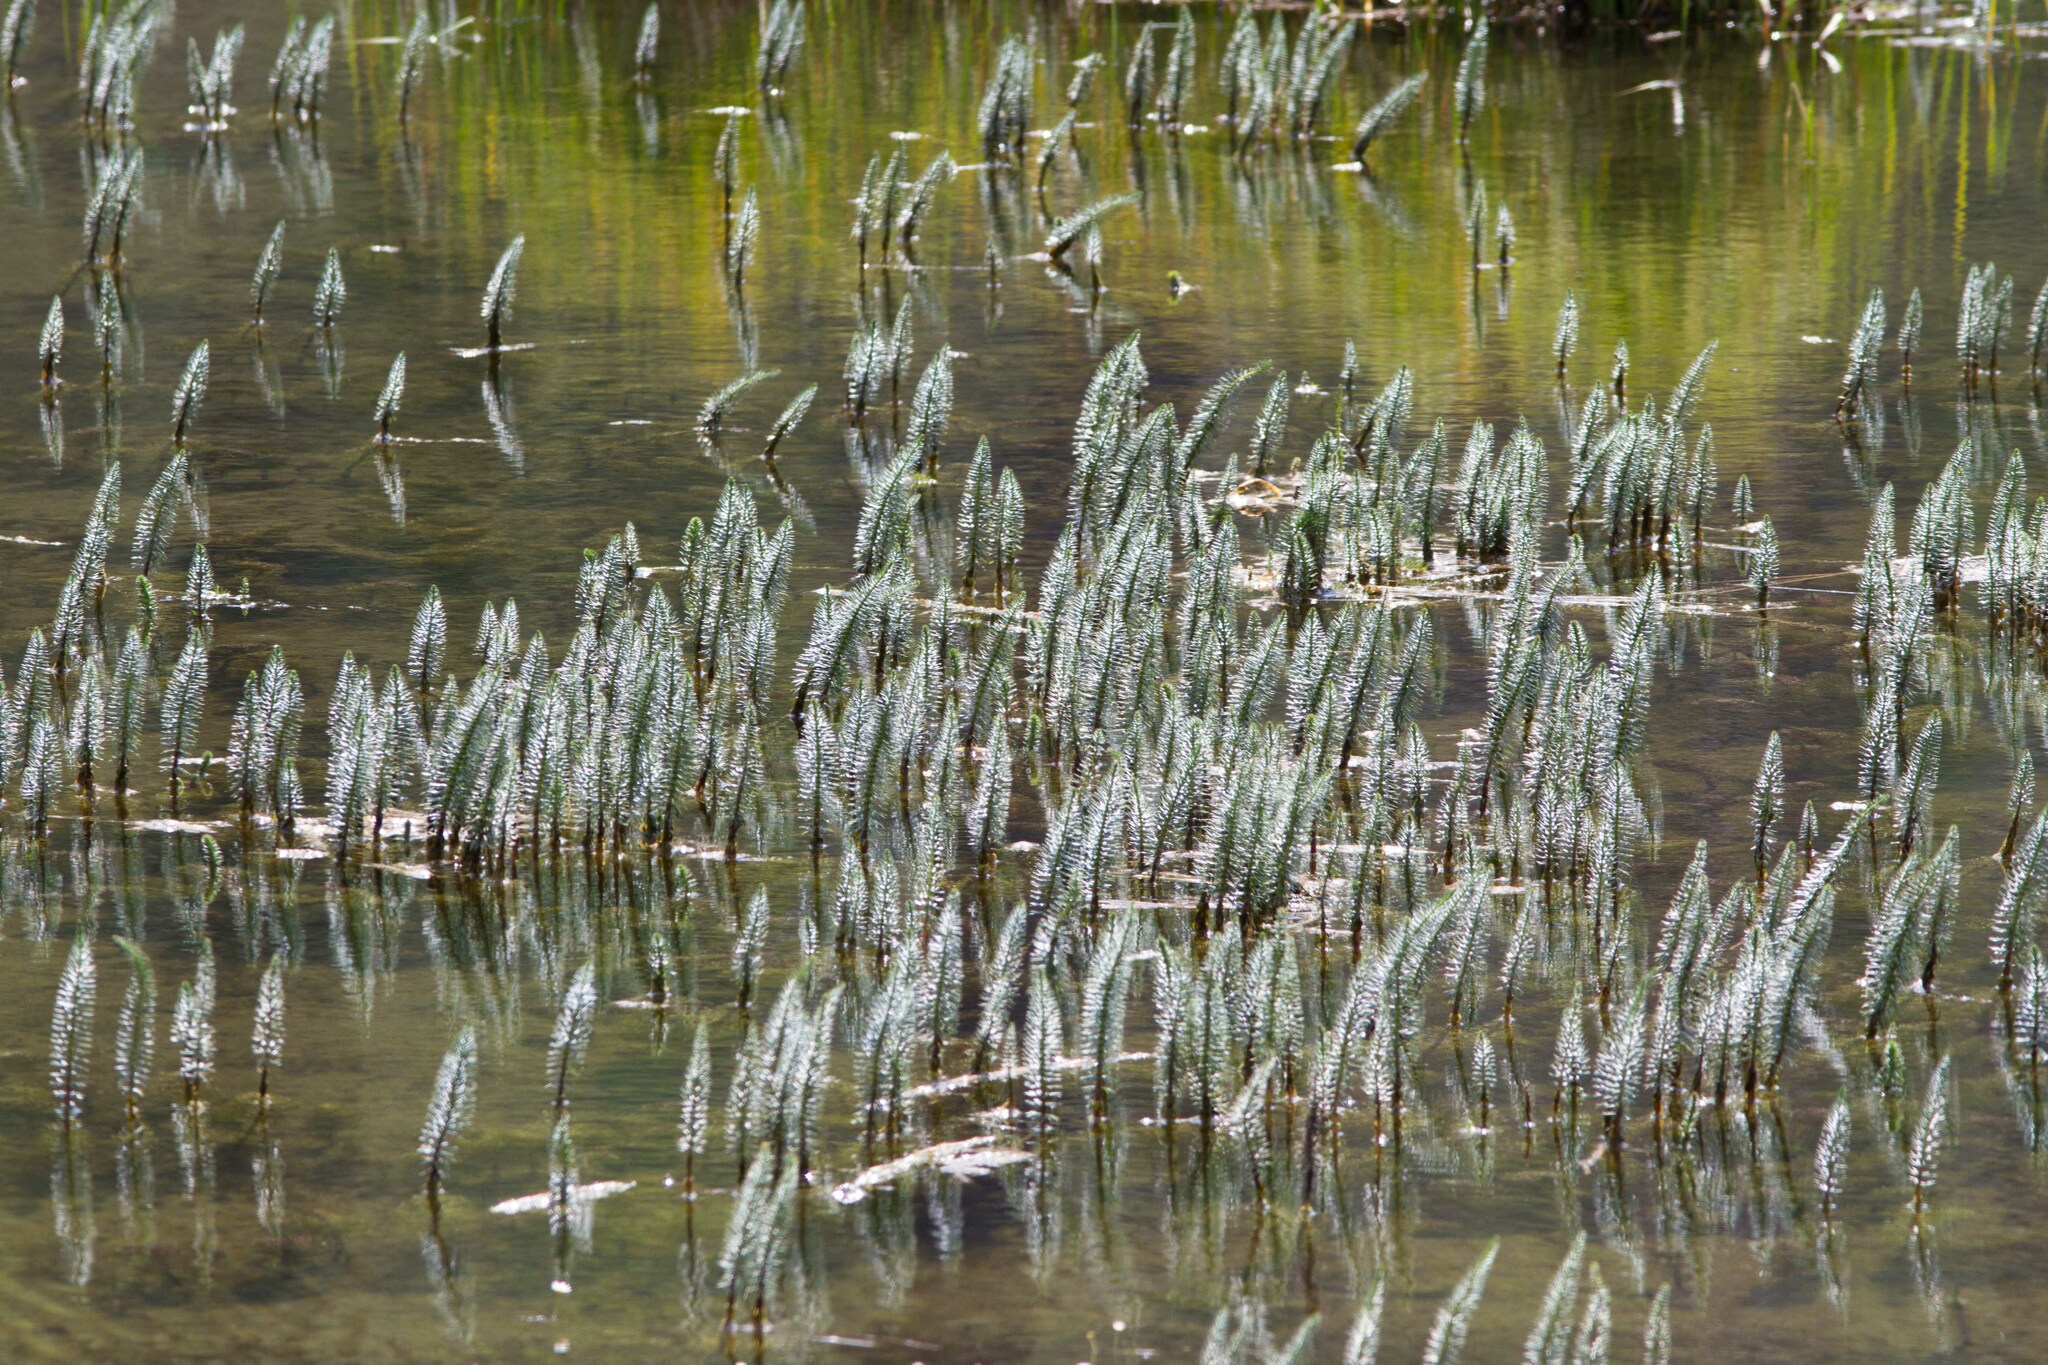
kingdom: Plantae
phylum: Tracheophyta
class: Magnoliopsida
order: Lamiales
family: Plantaginaceae
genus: Hippuris
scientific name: Hippuris vulgaris
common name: Mare's-tail
